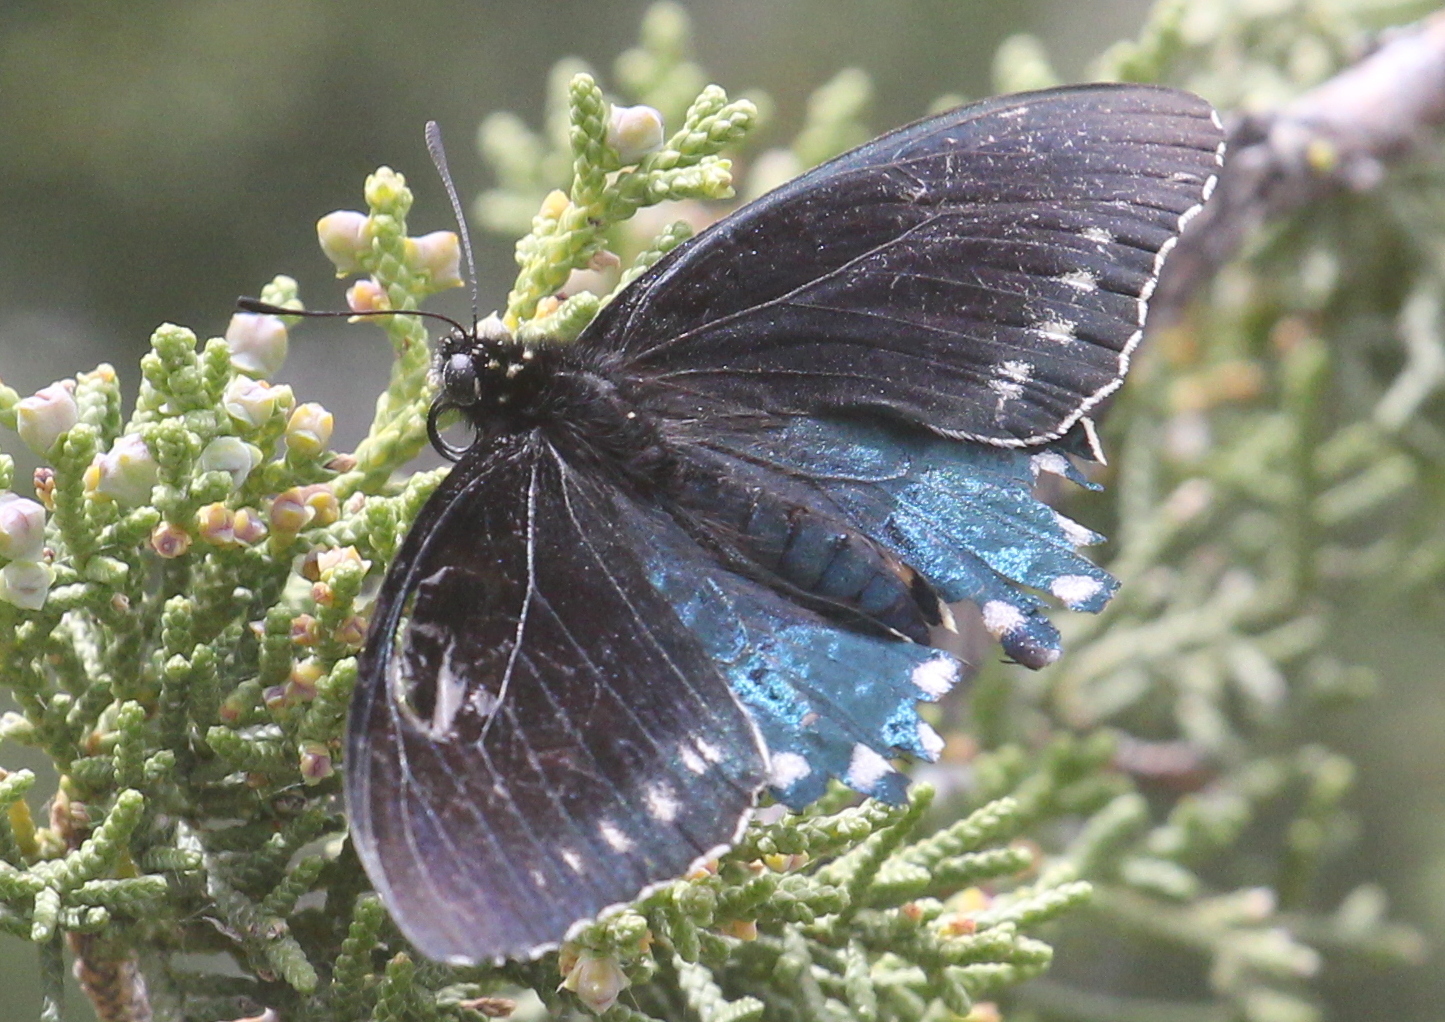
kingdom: Animalia
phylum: Arthropoda
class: Insecta
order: Lepidoptera
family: Papilionidae
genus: Battus
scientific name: Battus philenor
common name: Pipevine swallowtail
